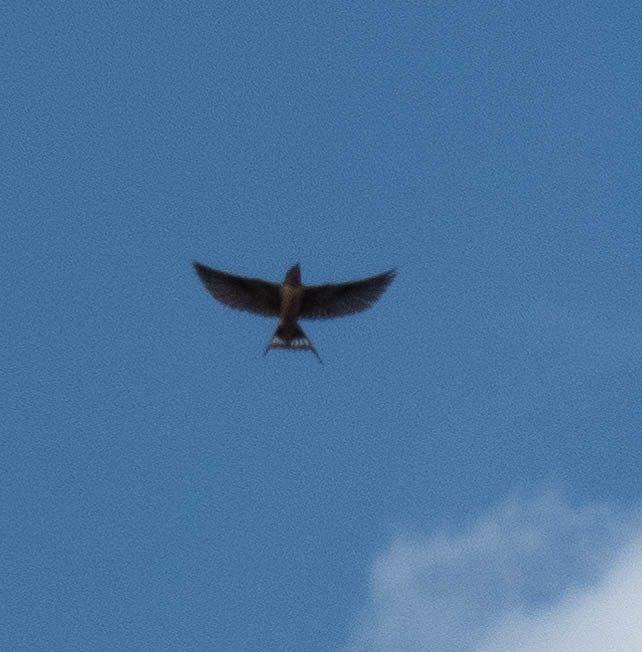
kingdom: Animalia
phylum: Chordata
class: Aves
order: Passeriformes
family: Hirundinidae
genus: Hirundo
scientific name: Hirundo rustica
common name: Barn swallow
